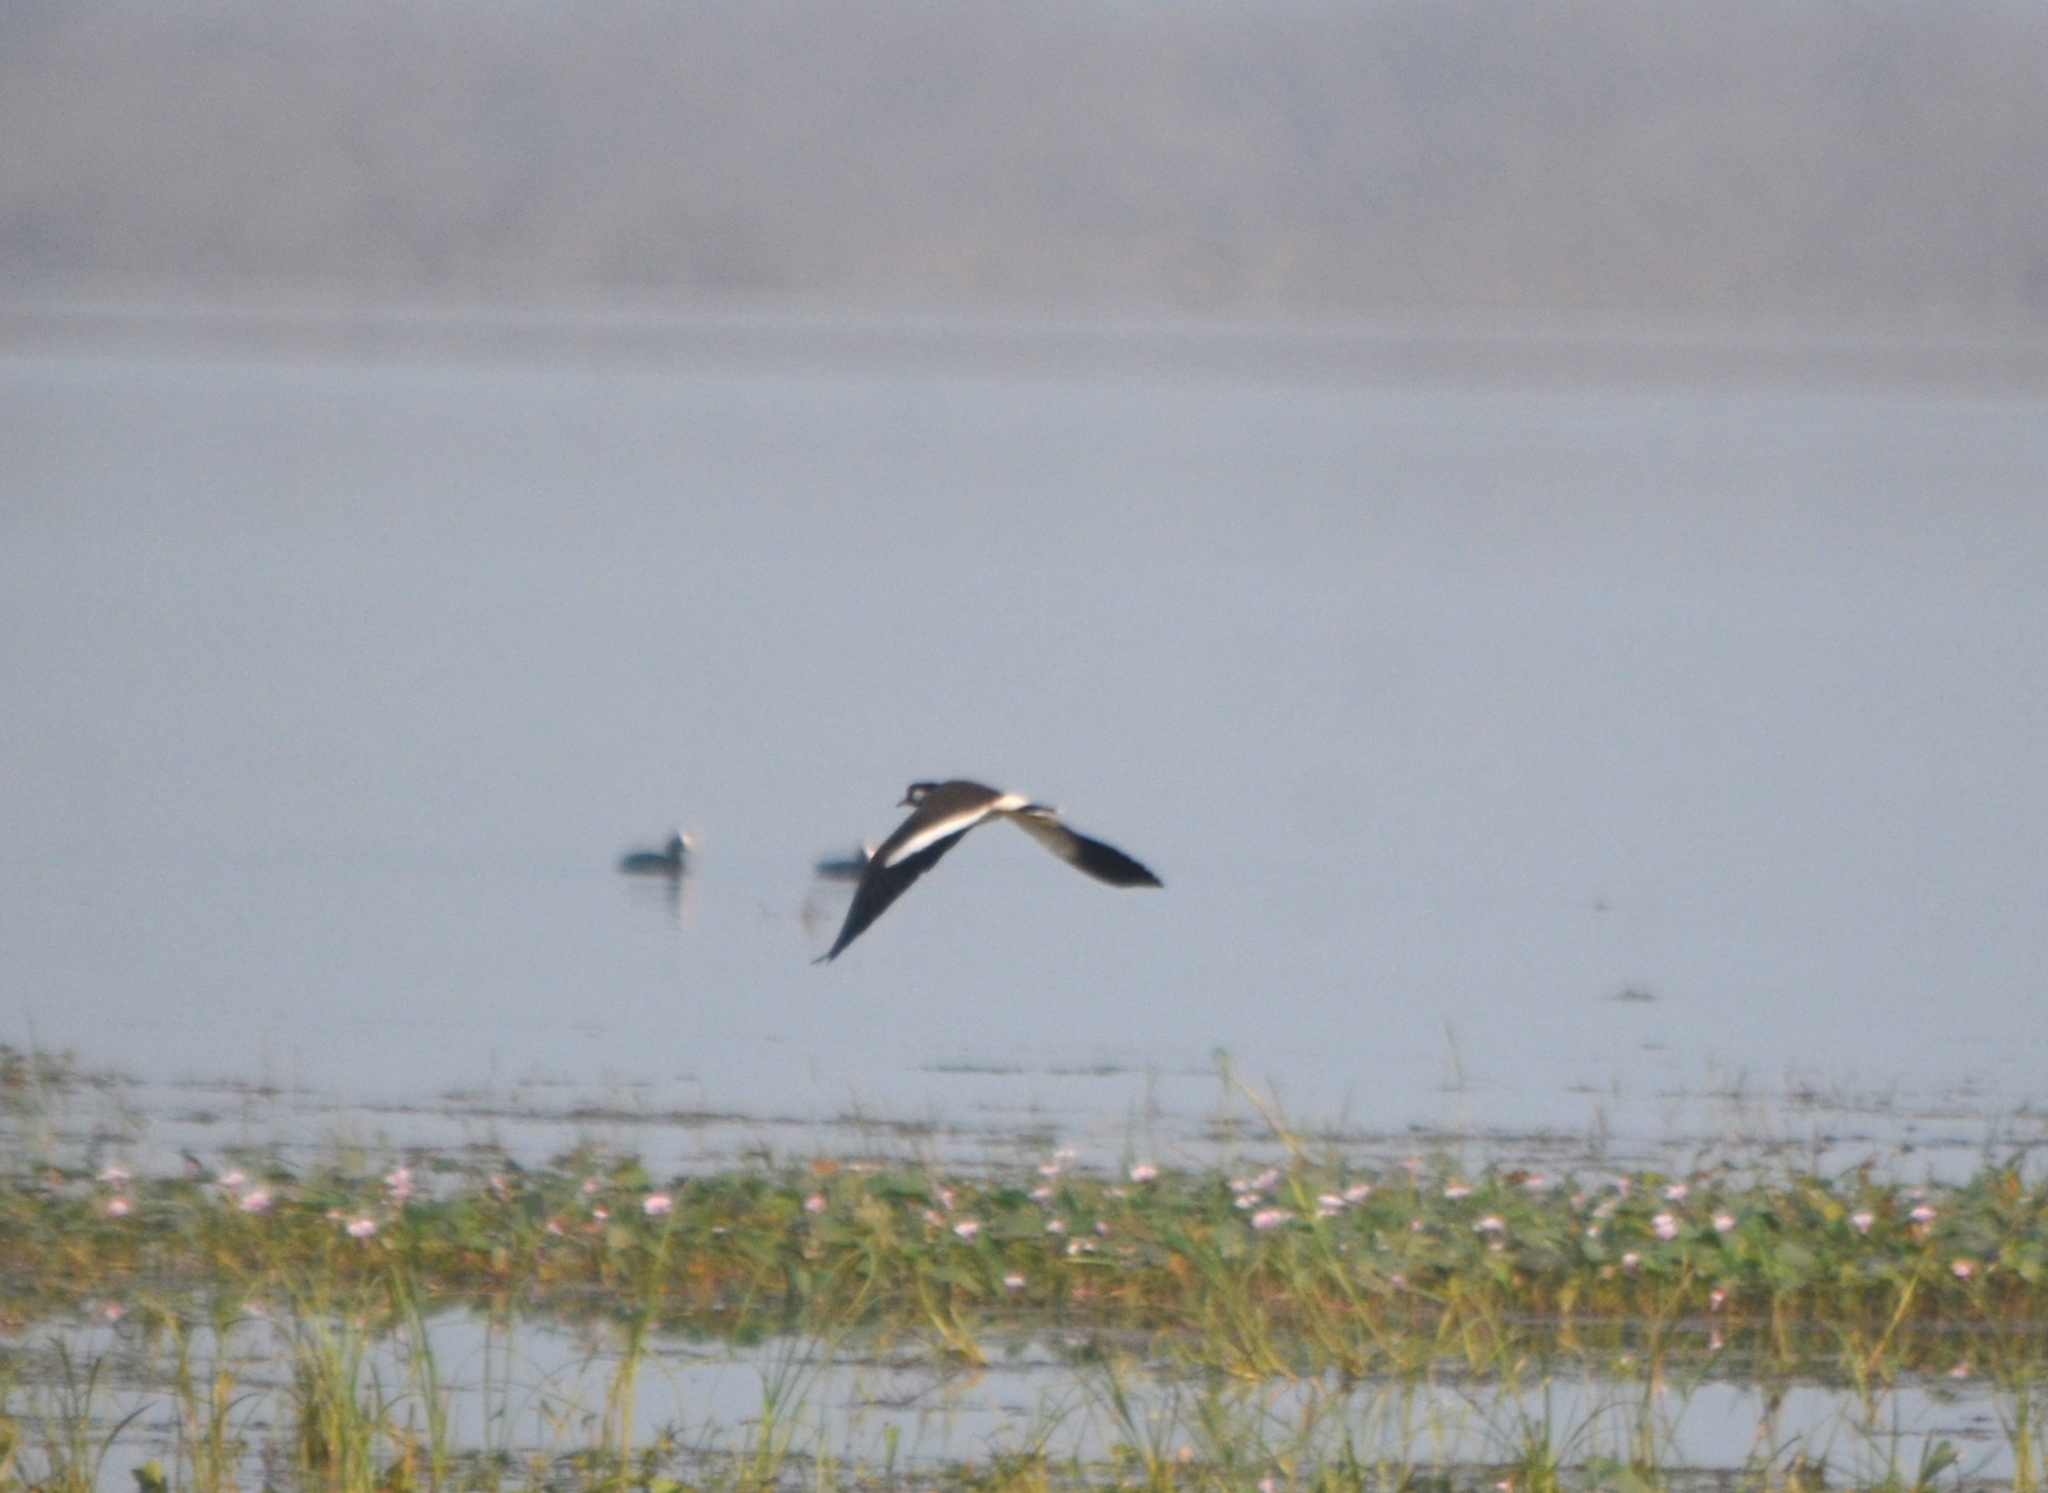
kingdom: Animalia
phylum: Chordata
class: Aves
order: Charadriiformes
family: Charadriidae
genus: Vanellus
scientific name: Vanellus indicus
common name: Red-wattled lapwing
